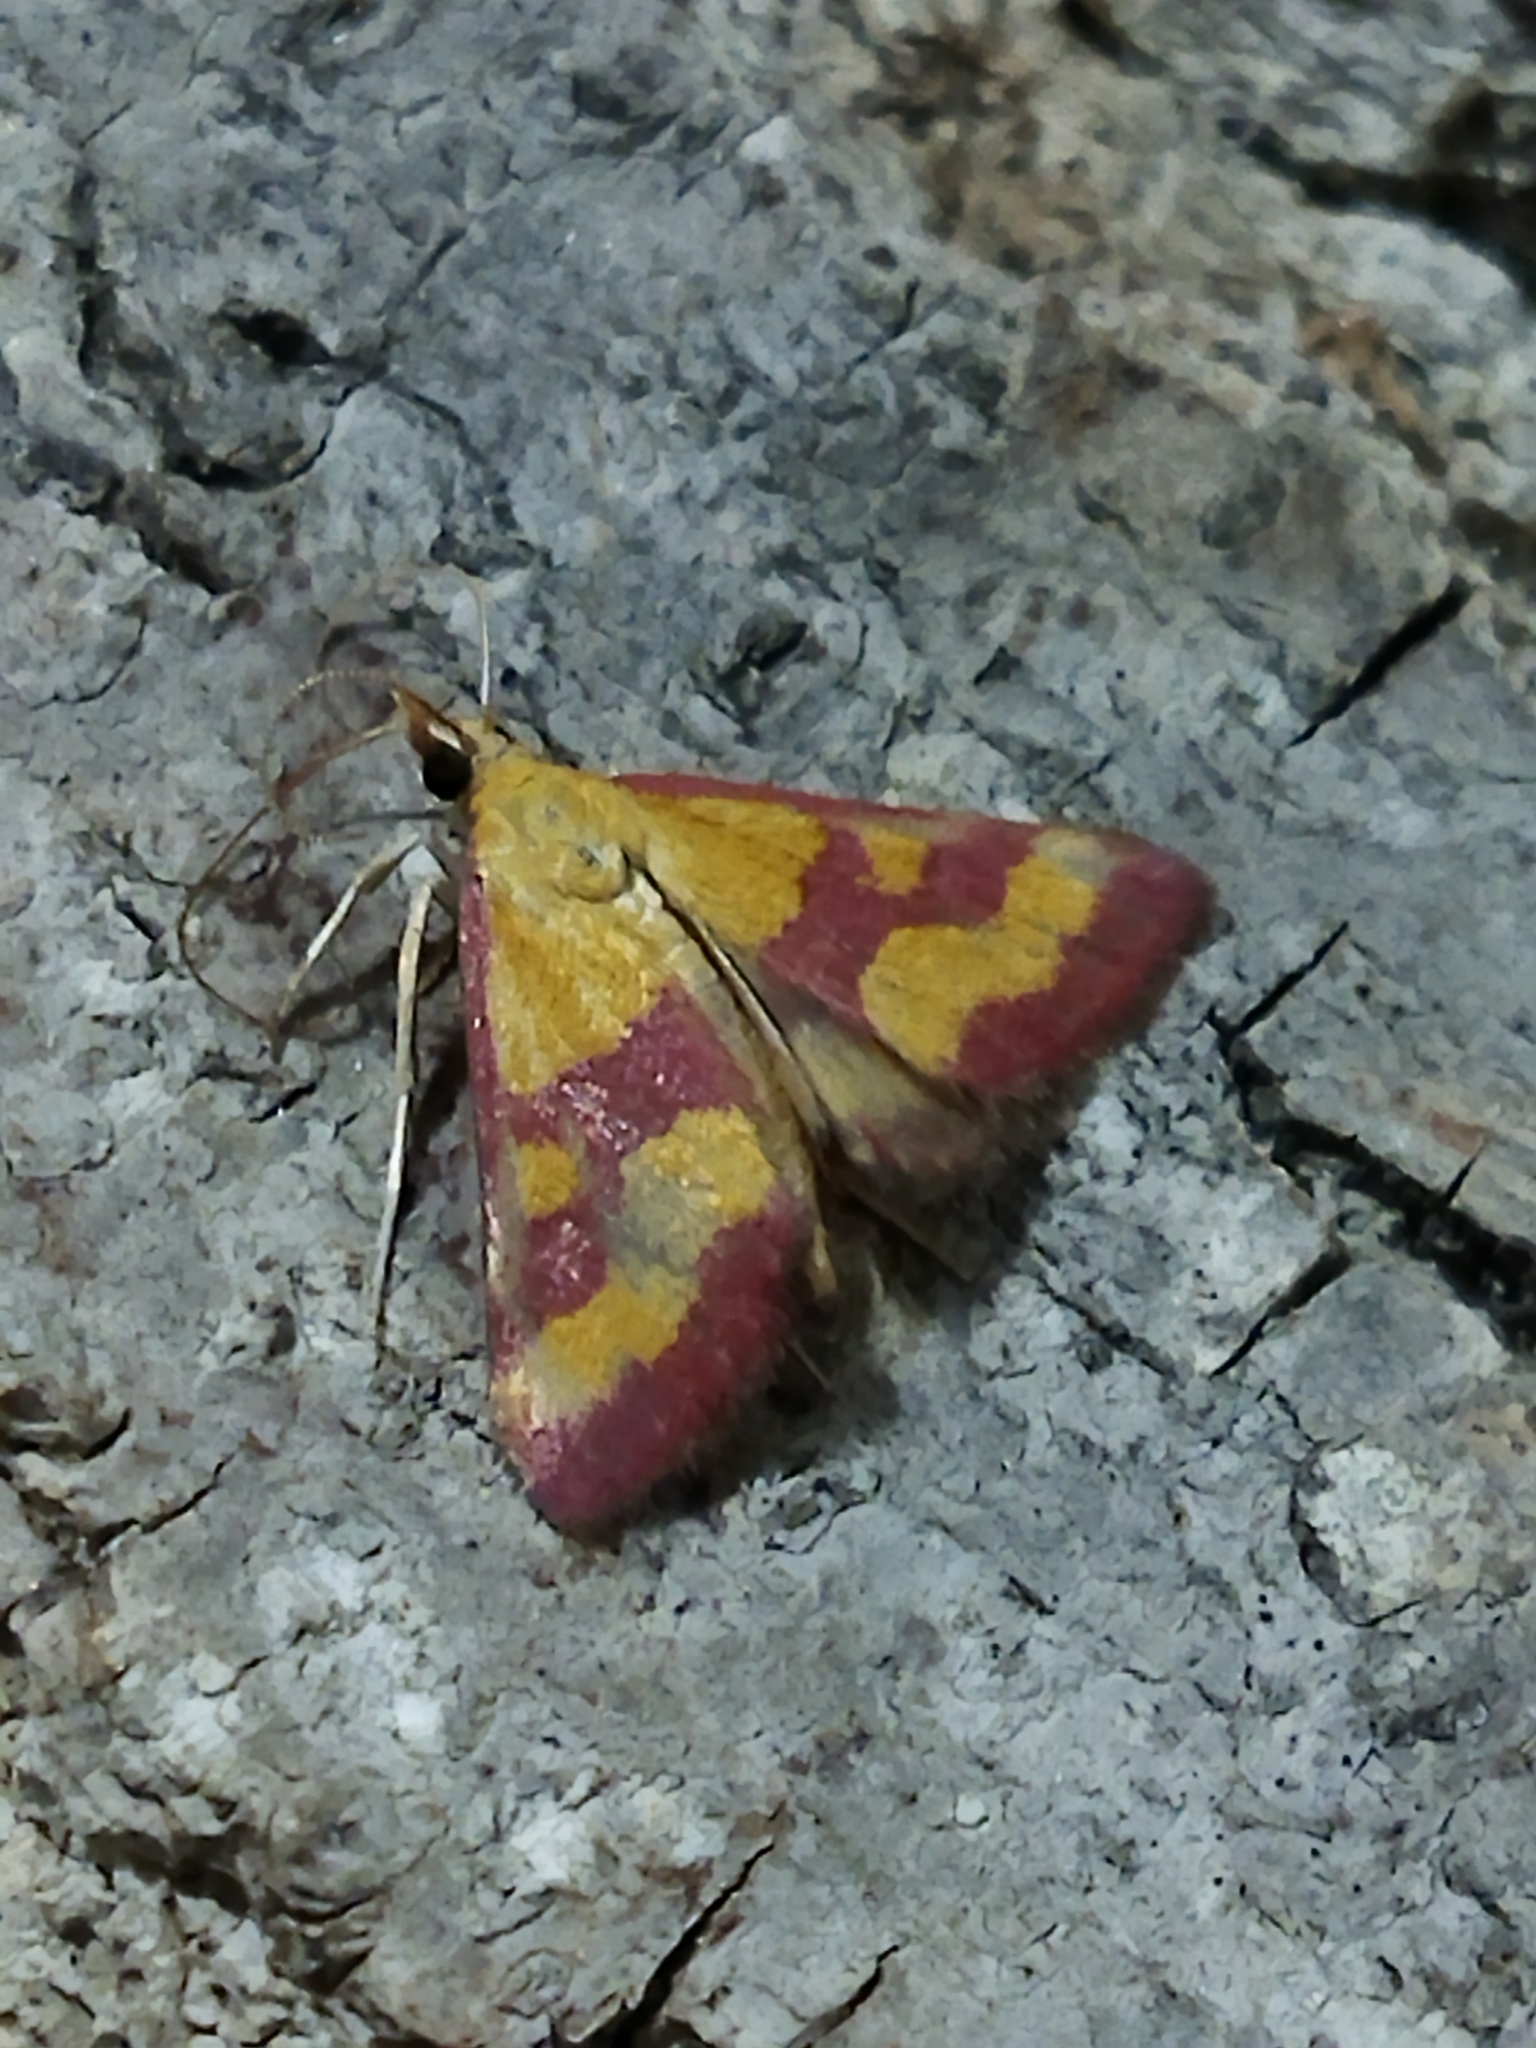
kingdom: Animalia
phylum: Arthropoda
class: Insecta
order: Lepidoptera
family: Crambidae
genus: Pyrausta
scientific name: Pyrausta sanguinalis
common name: Scarce crimson and gold
